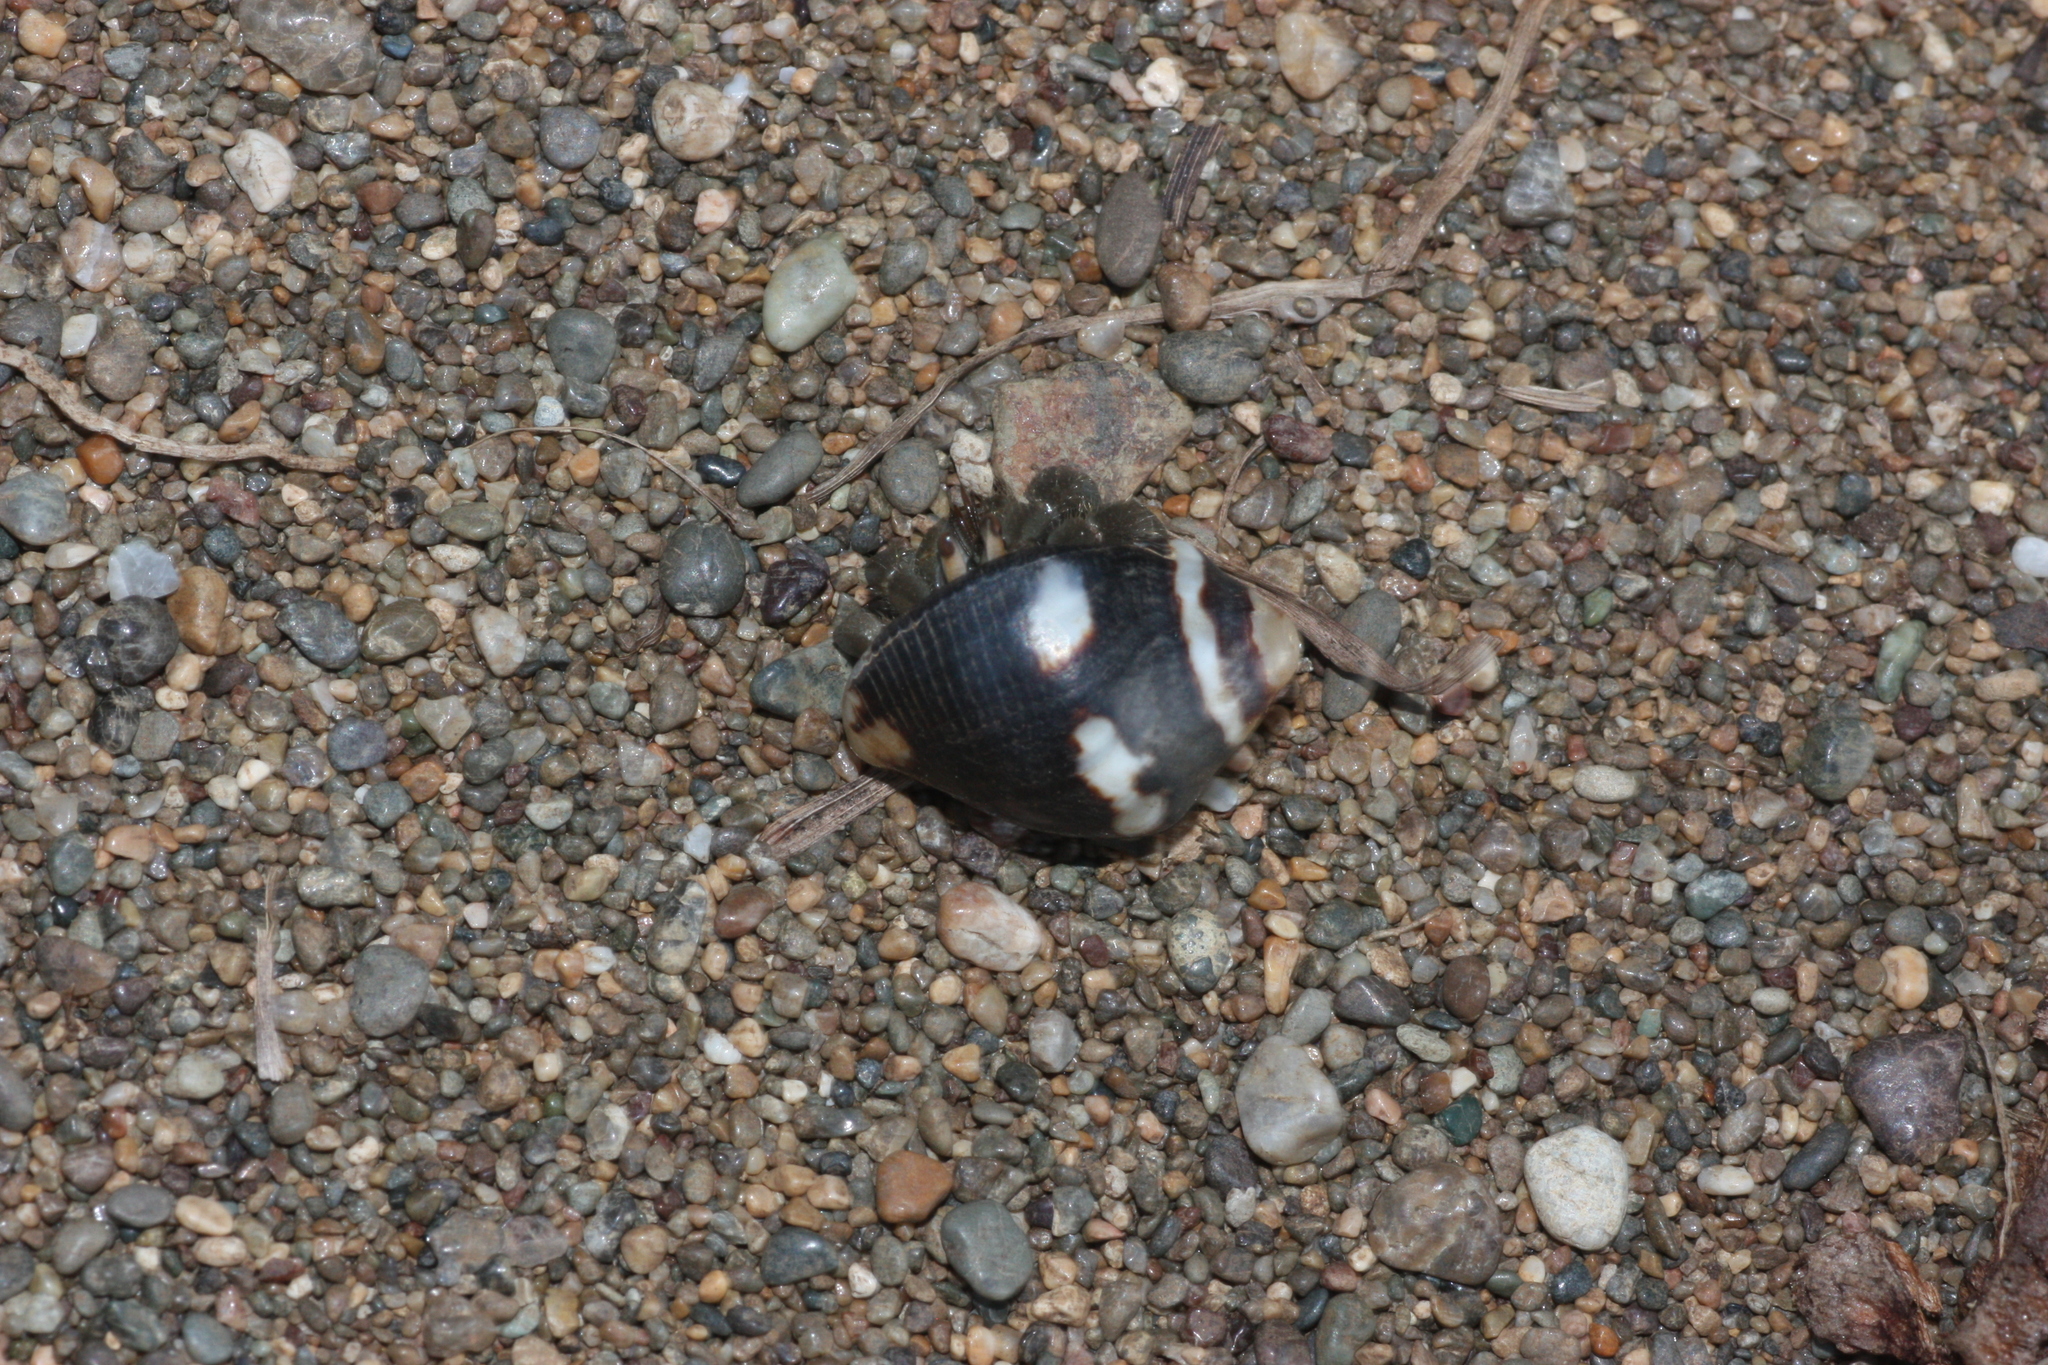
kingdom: Animalia
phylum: Arthropoda
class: Malacostraca
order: Decapoda
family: Coenobitidae
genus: Coenobita
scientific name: Coenobita compressus
